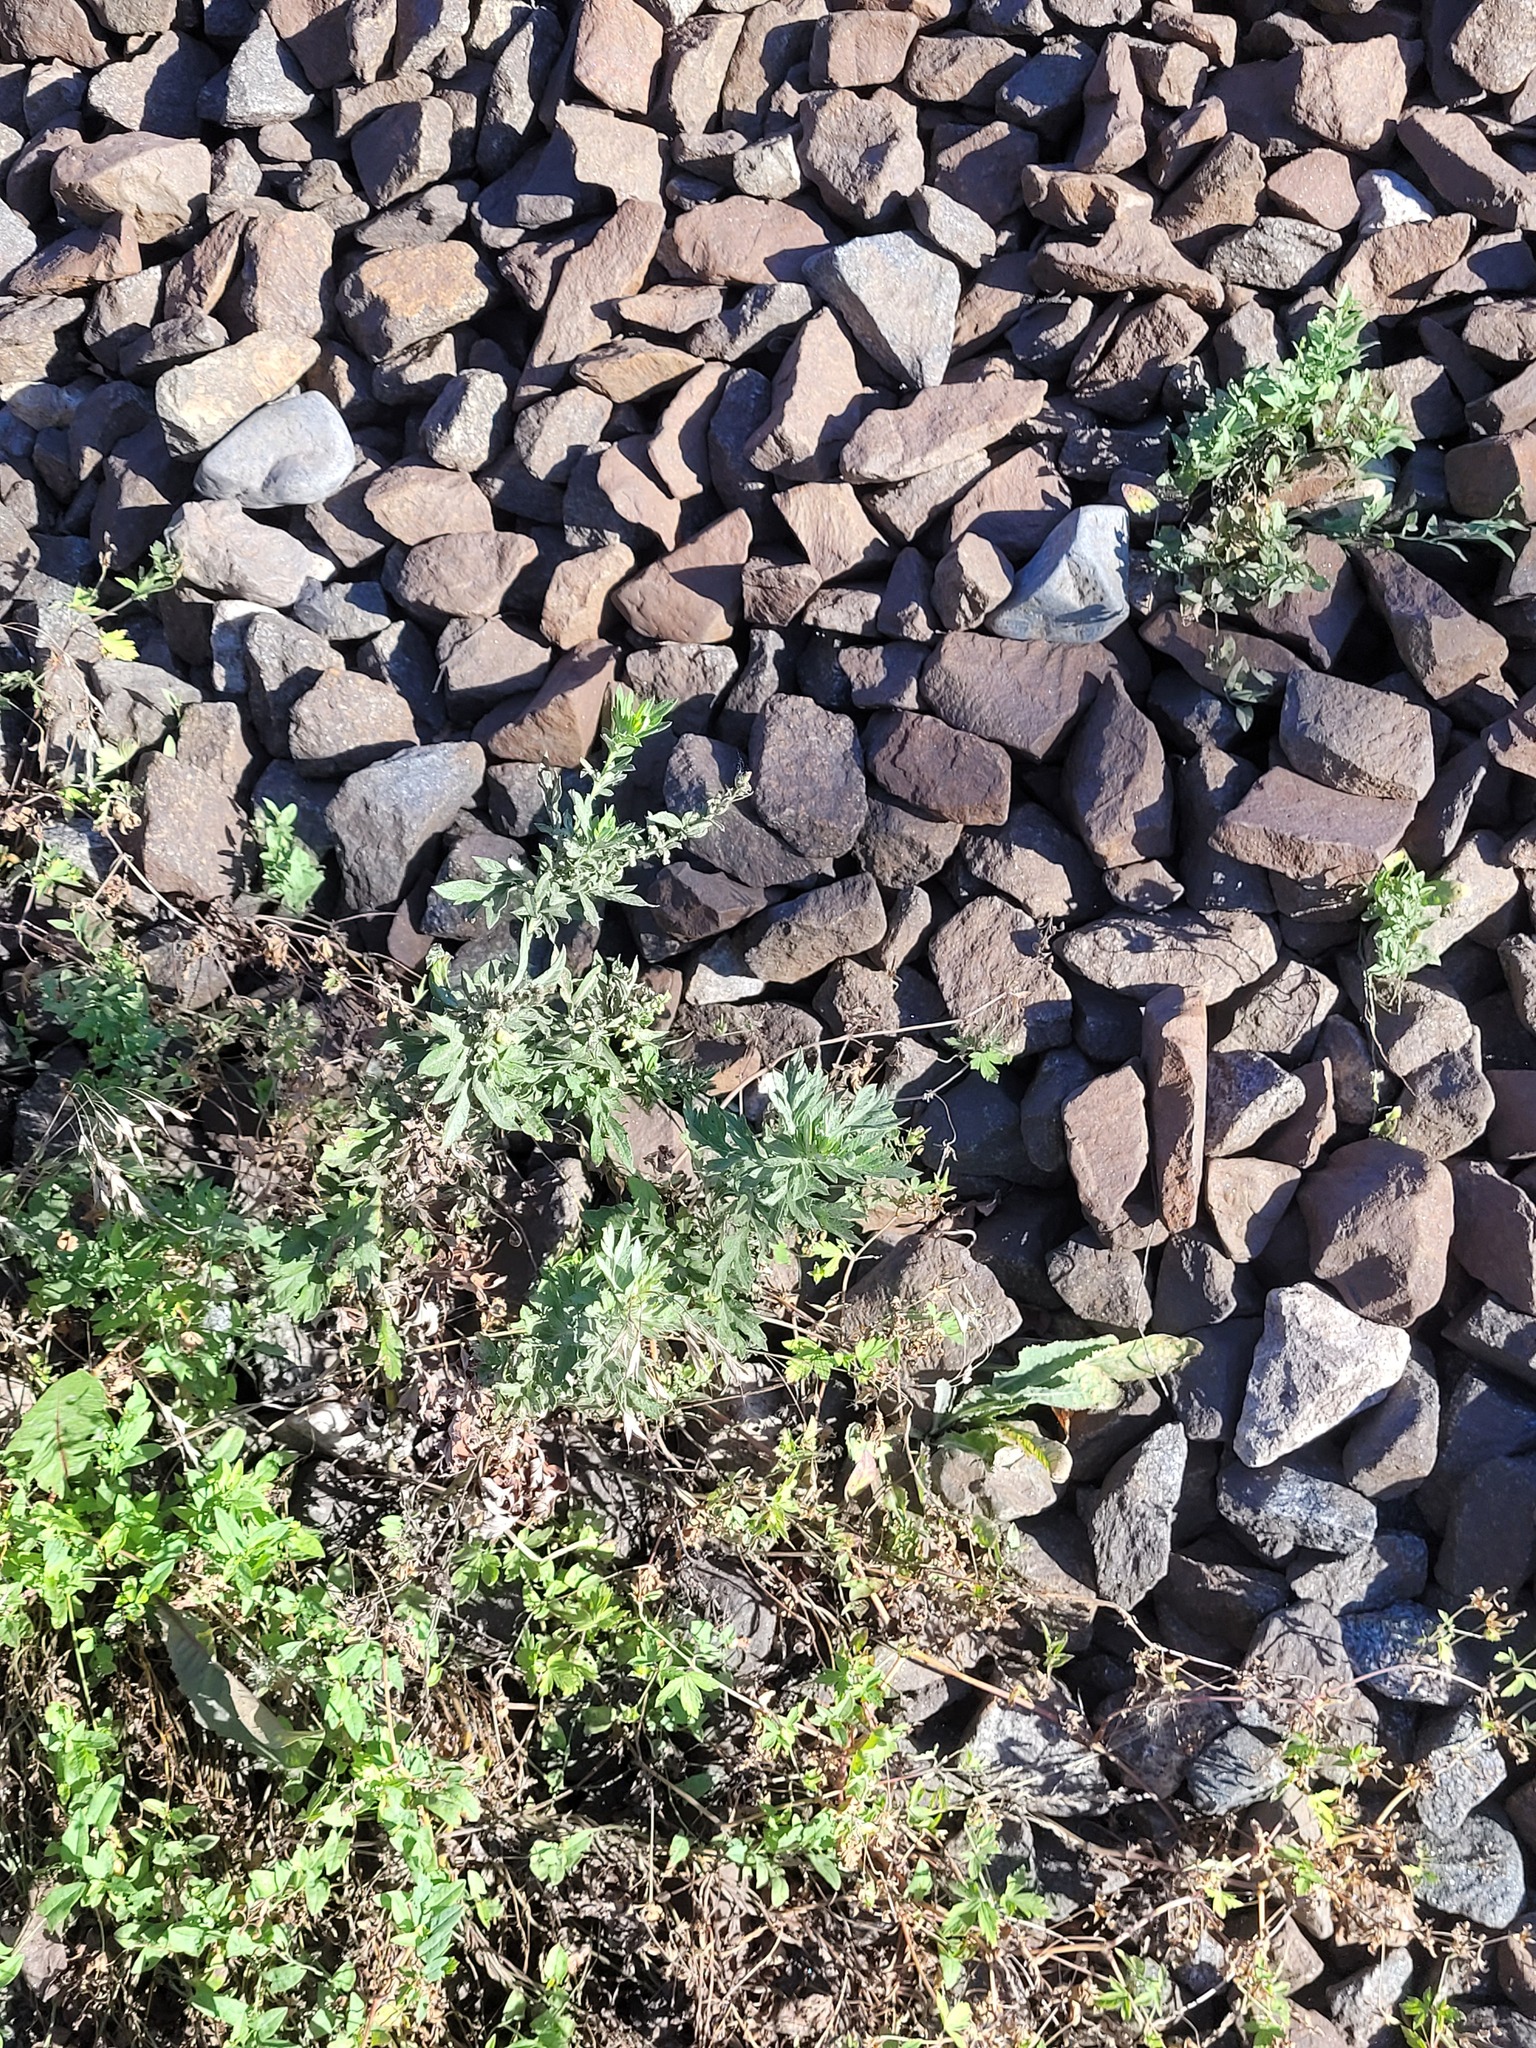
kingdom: Plantae
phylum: Tracheophyta
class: Magnoliopsida
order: Asterales
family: Asteraceae
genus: Artemisia
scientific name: Artemisia vulgaris
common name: Mugwort
